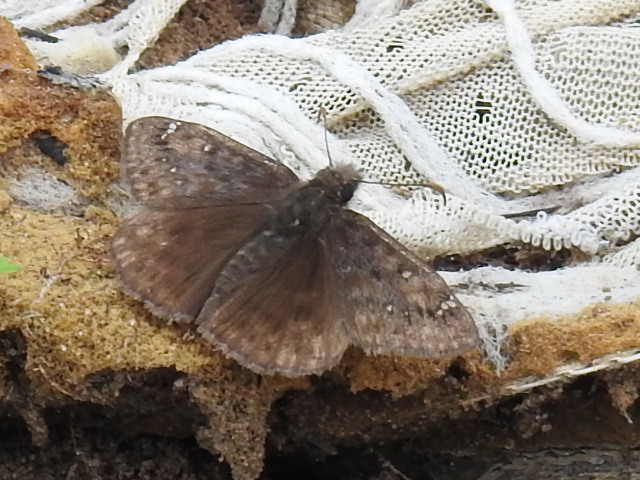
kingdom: Animalia
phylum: Arthropoda
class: Insecta
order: Lepidoptera
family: Hesperiidae
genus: Erynnis
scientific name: Erynnis juvenalis
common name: Juvenal's duskywing
